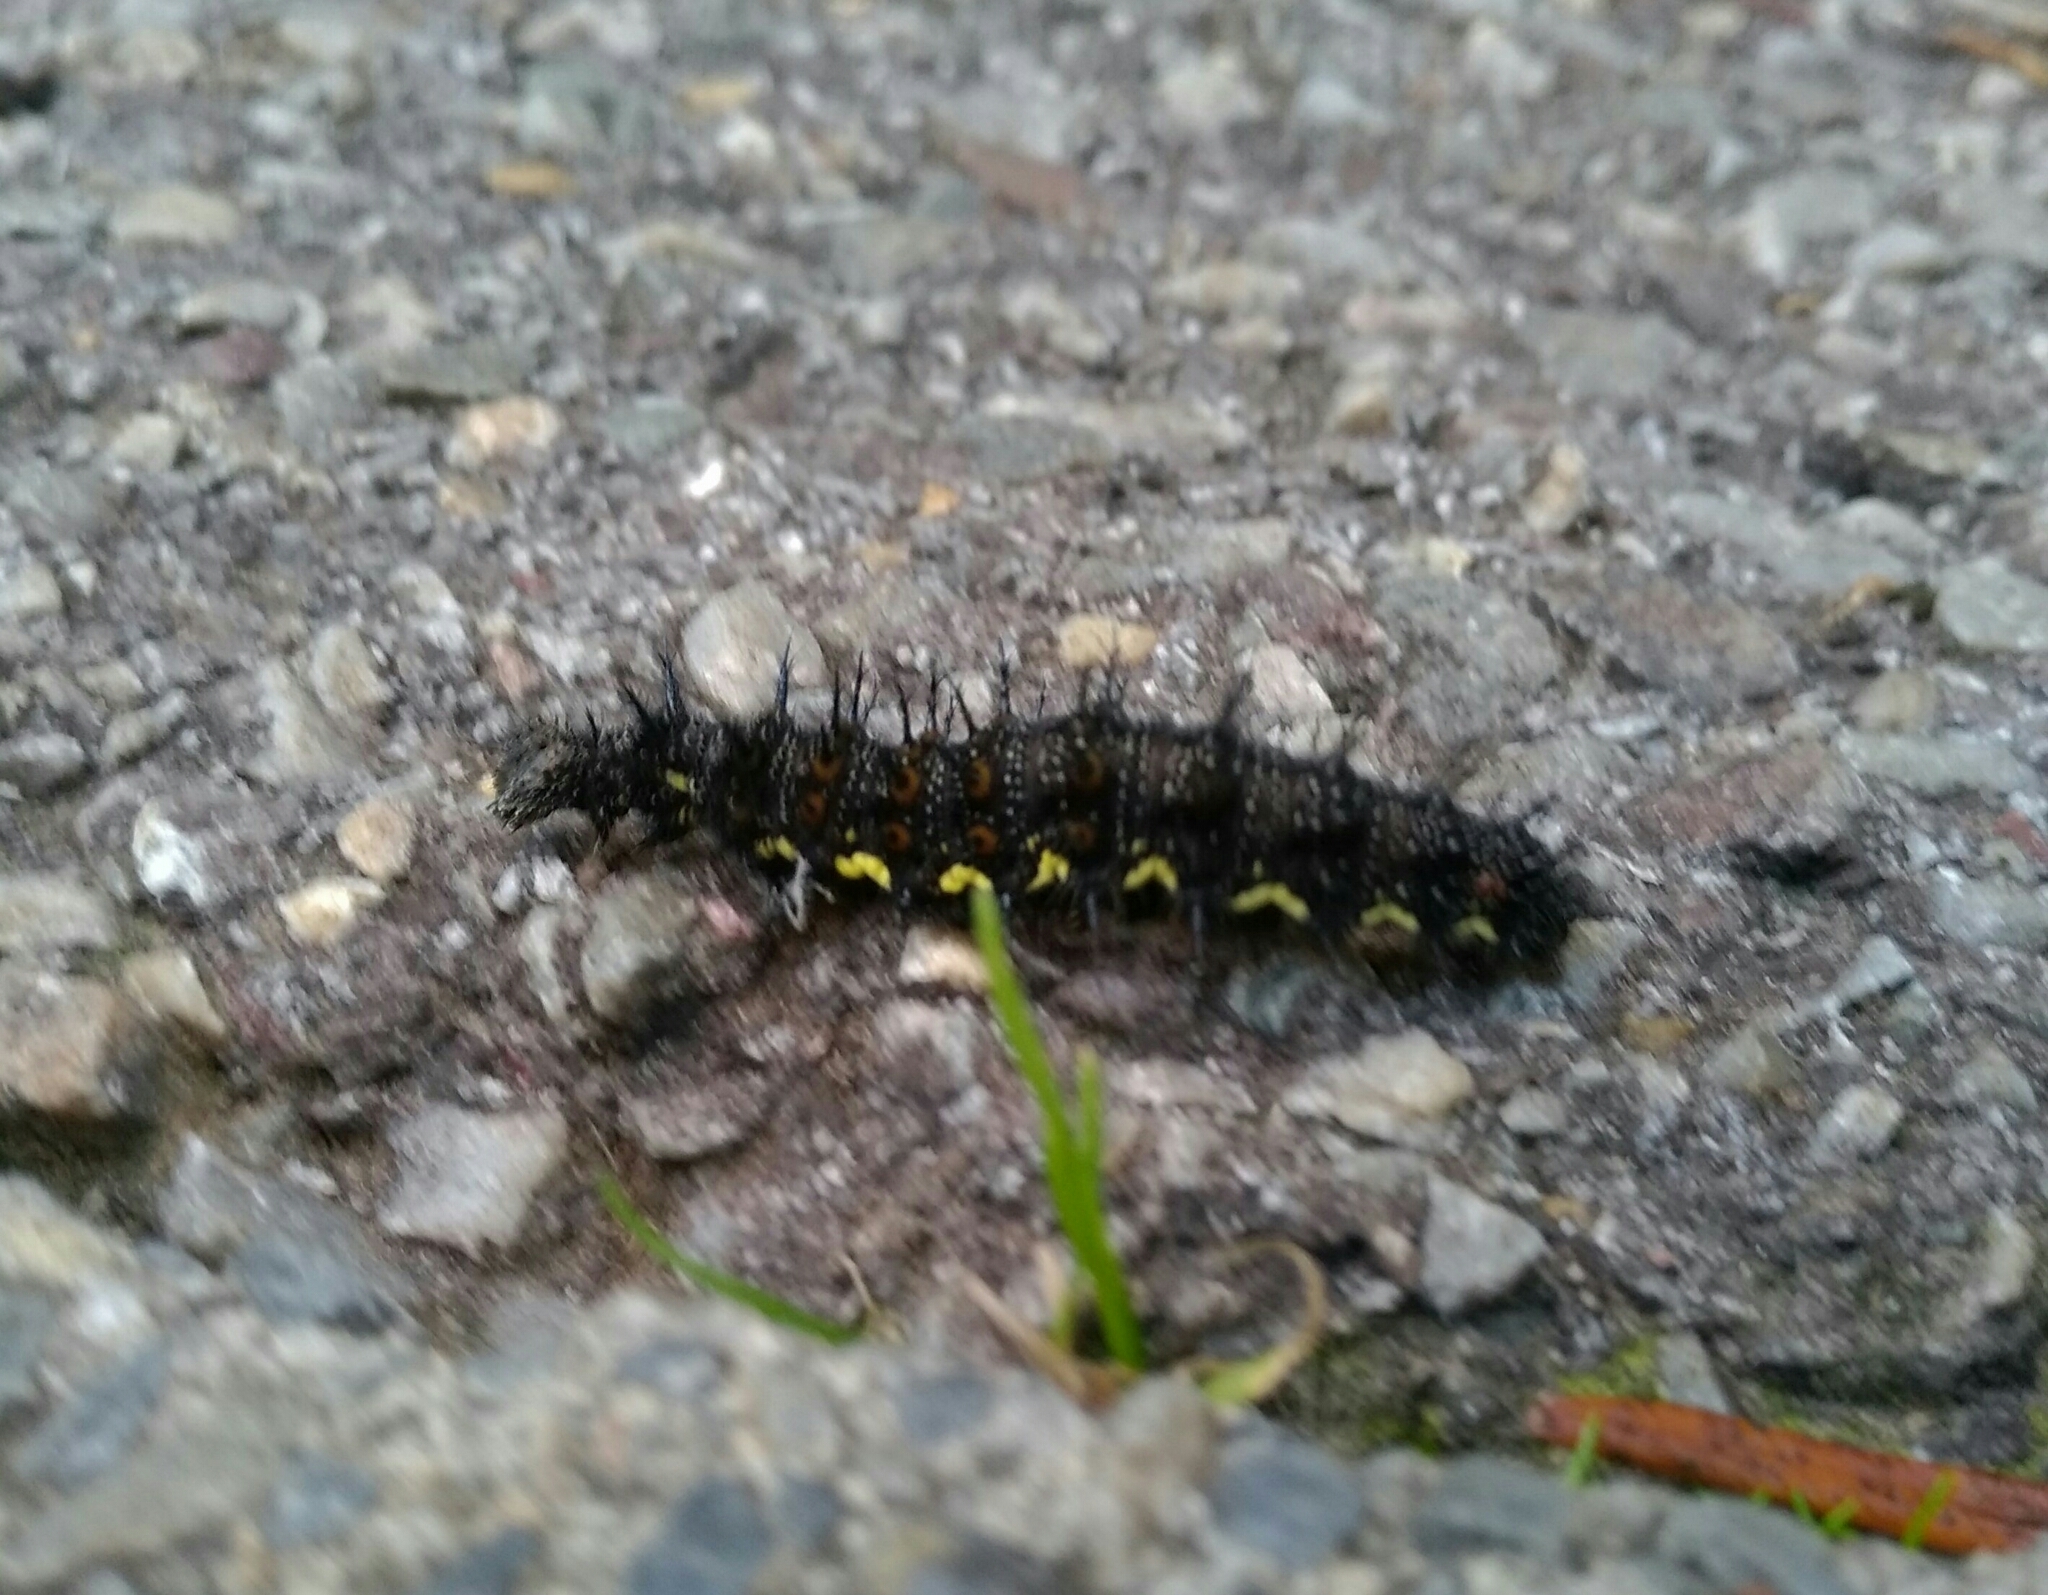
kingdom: Animalia
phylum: Arthropoda
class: Insecta
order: Lepidoptera
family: Nymphalidae
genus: Vanessa
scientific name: Vanessa atalanta
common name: Red admiral
